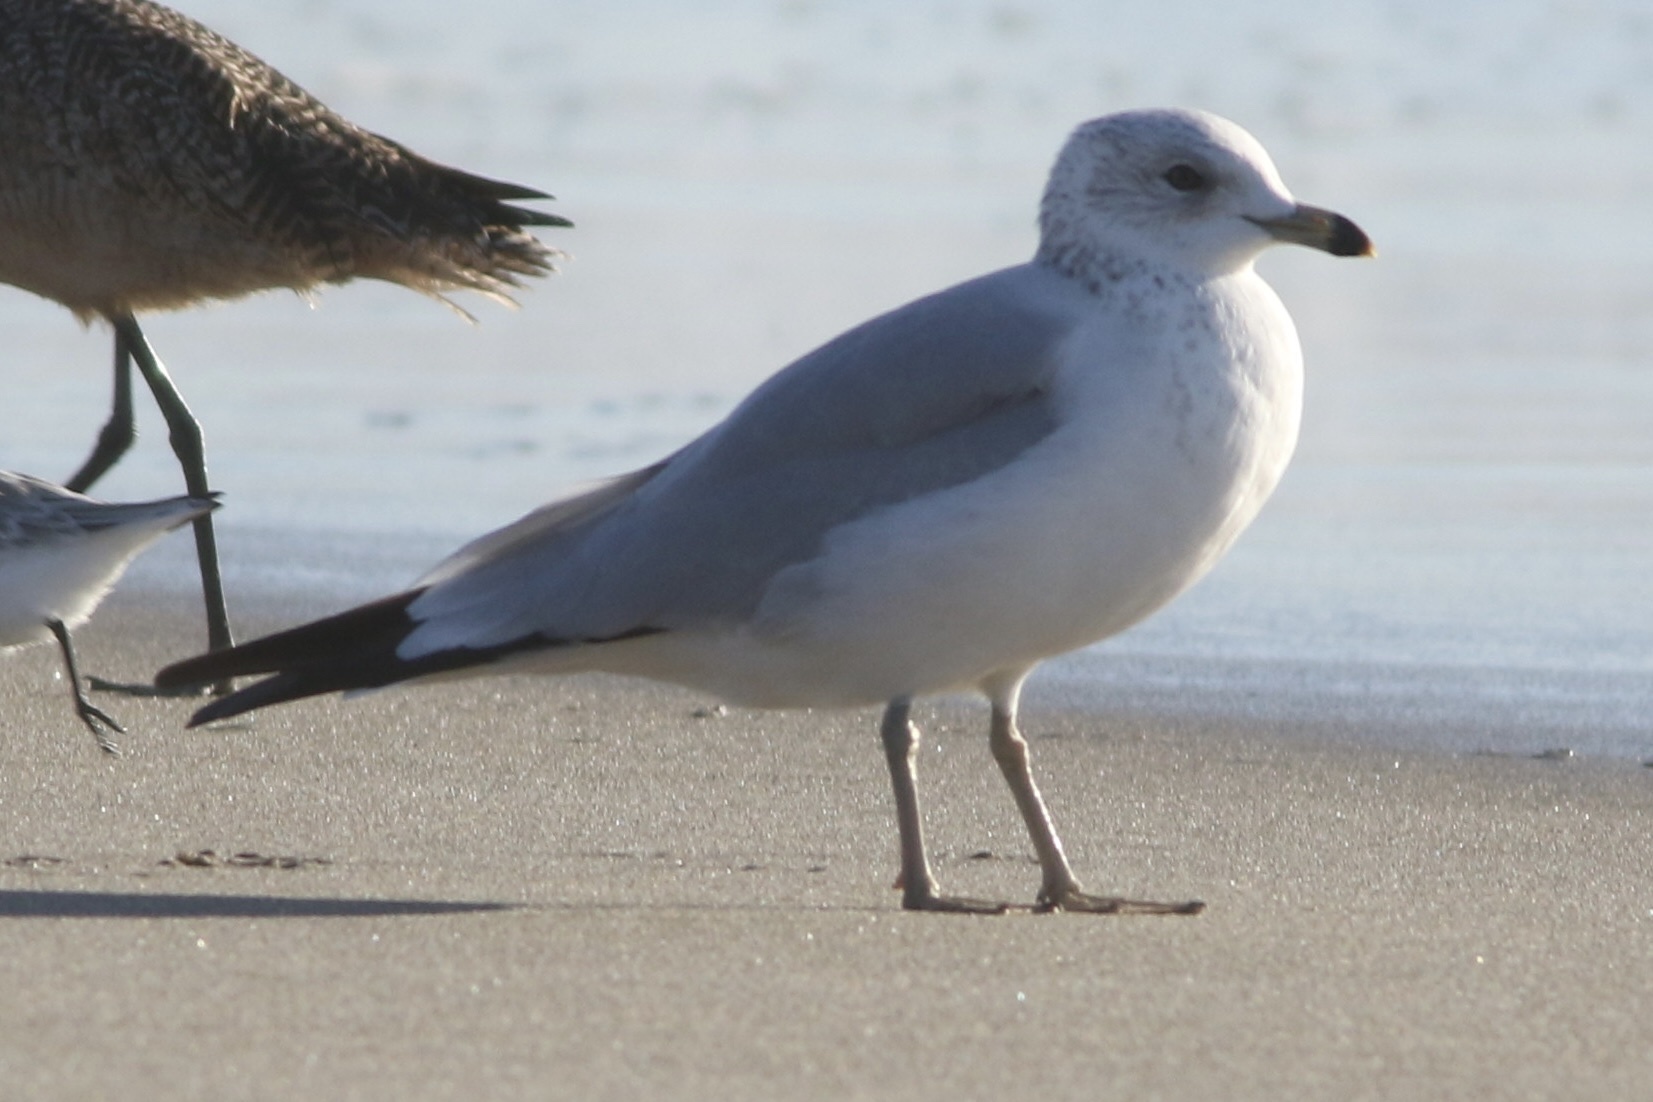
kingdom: Animalia
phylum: Chordata
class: Aves
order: Charadriiformes
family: Laridae
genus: Larus
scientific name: Larus delawarensis
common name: Ring-billed gull
